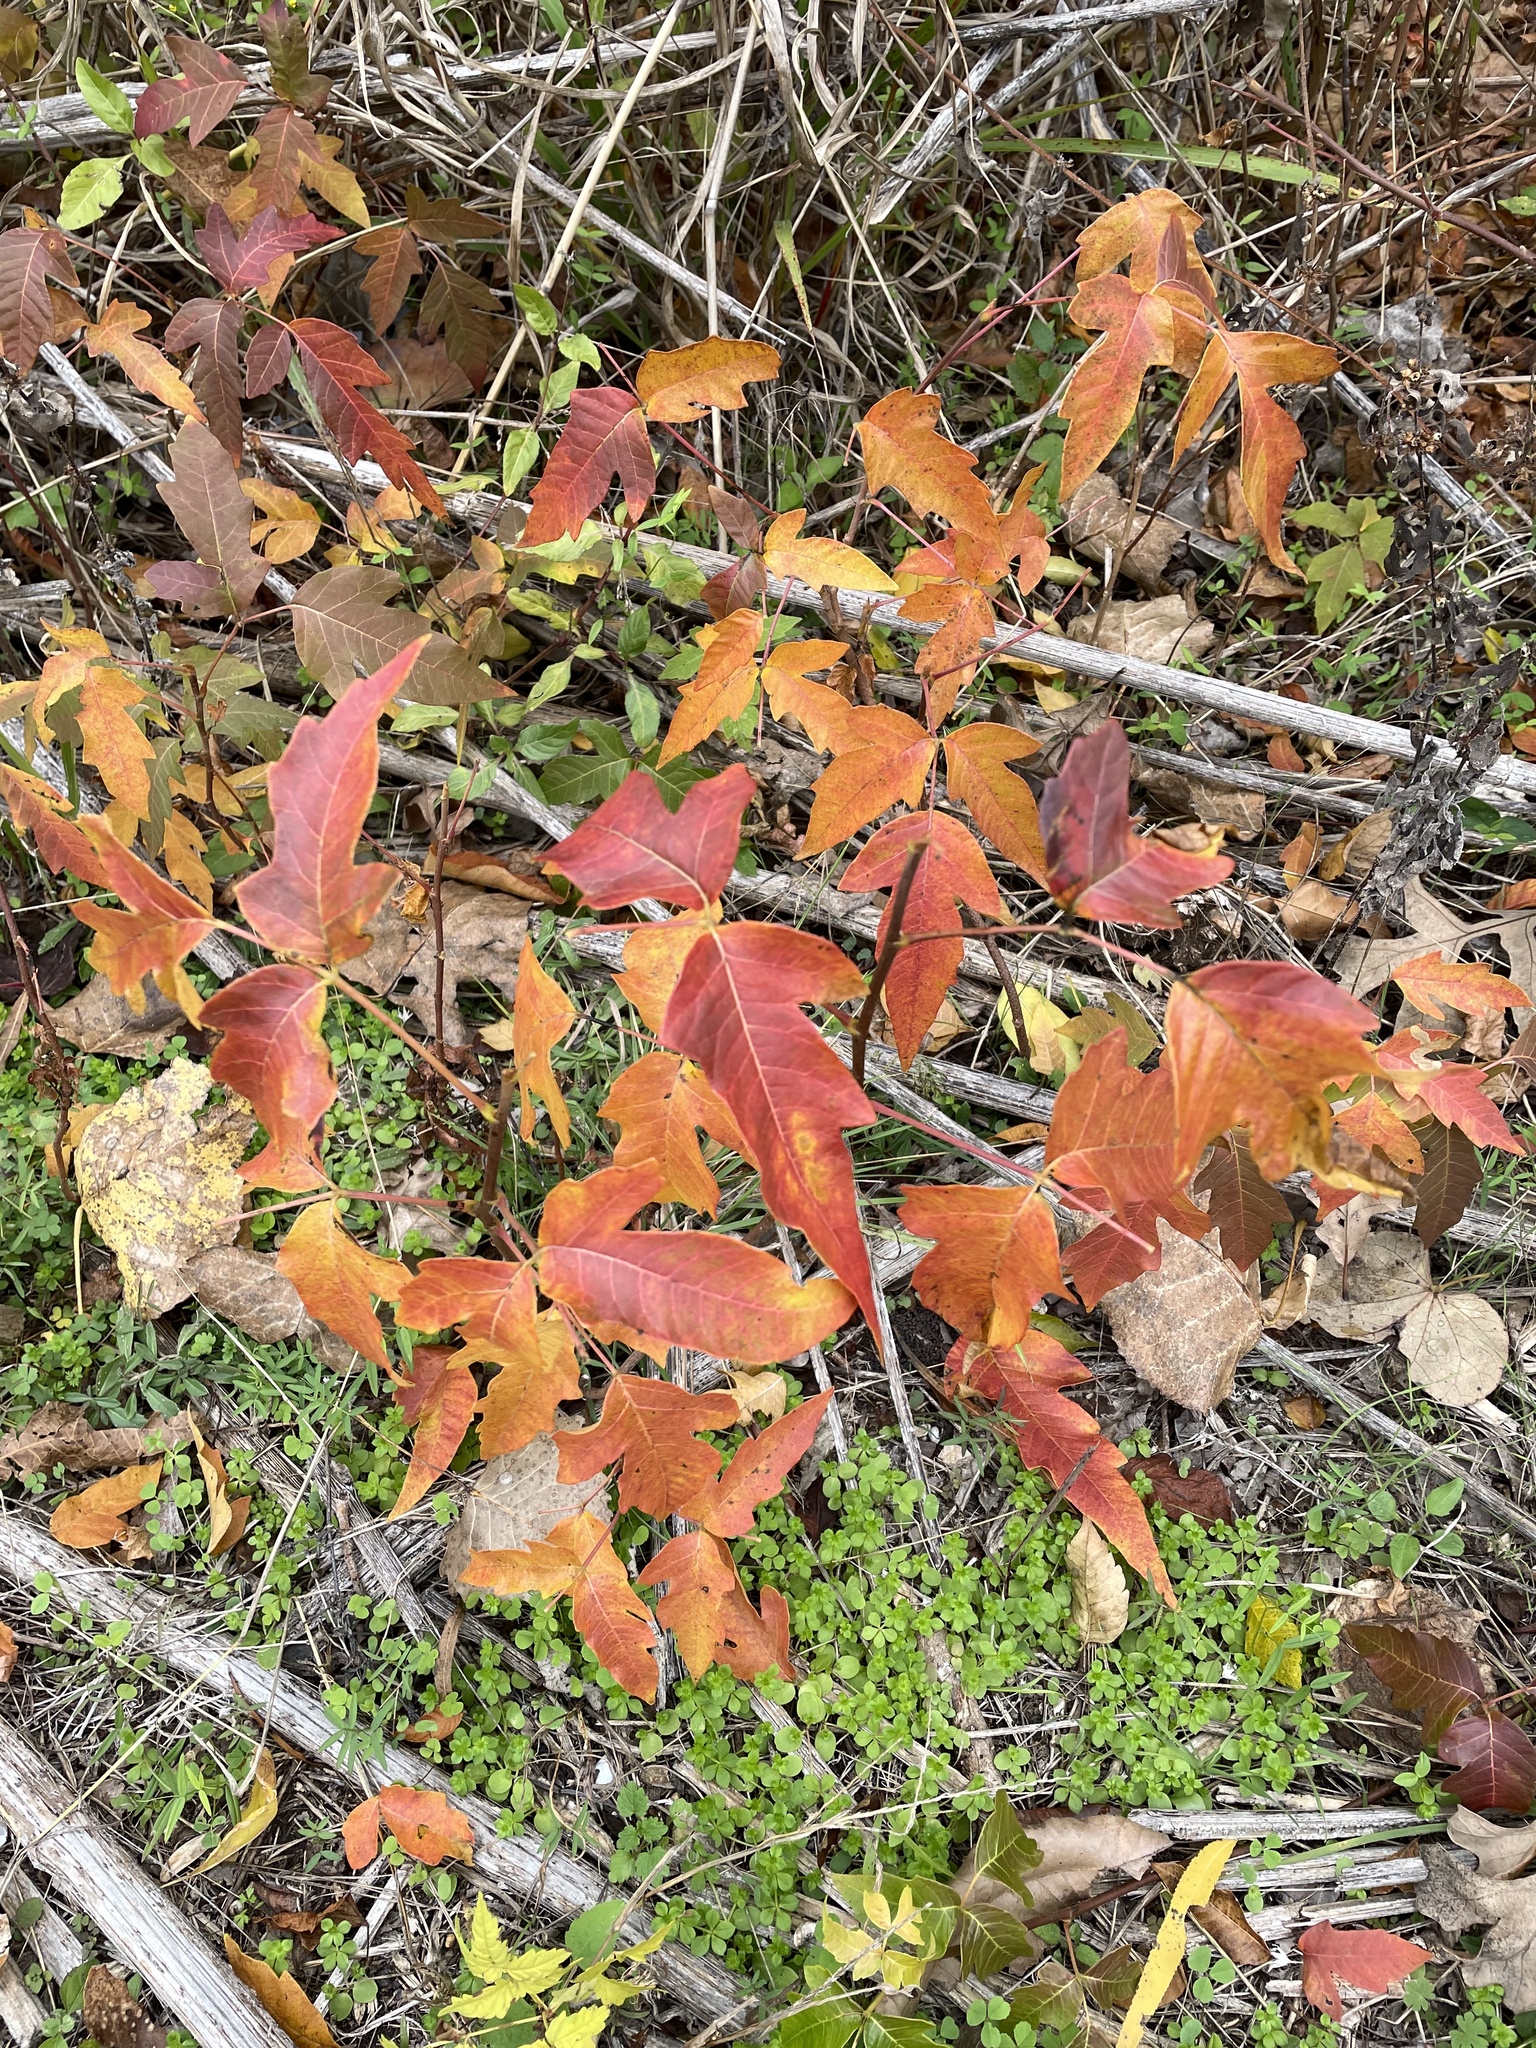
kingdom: Plantae
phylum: Tracheophyta
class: Magnoliopsida
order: Sapindales
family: Anacardiaceae
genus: Toxicodendron
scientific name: Toxicodendron radicans
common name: Poison ivy
